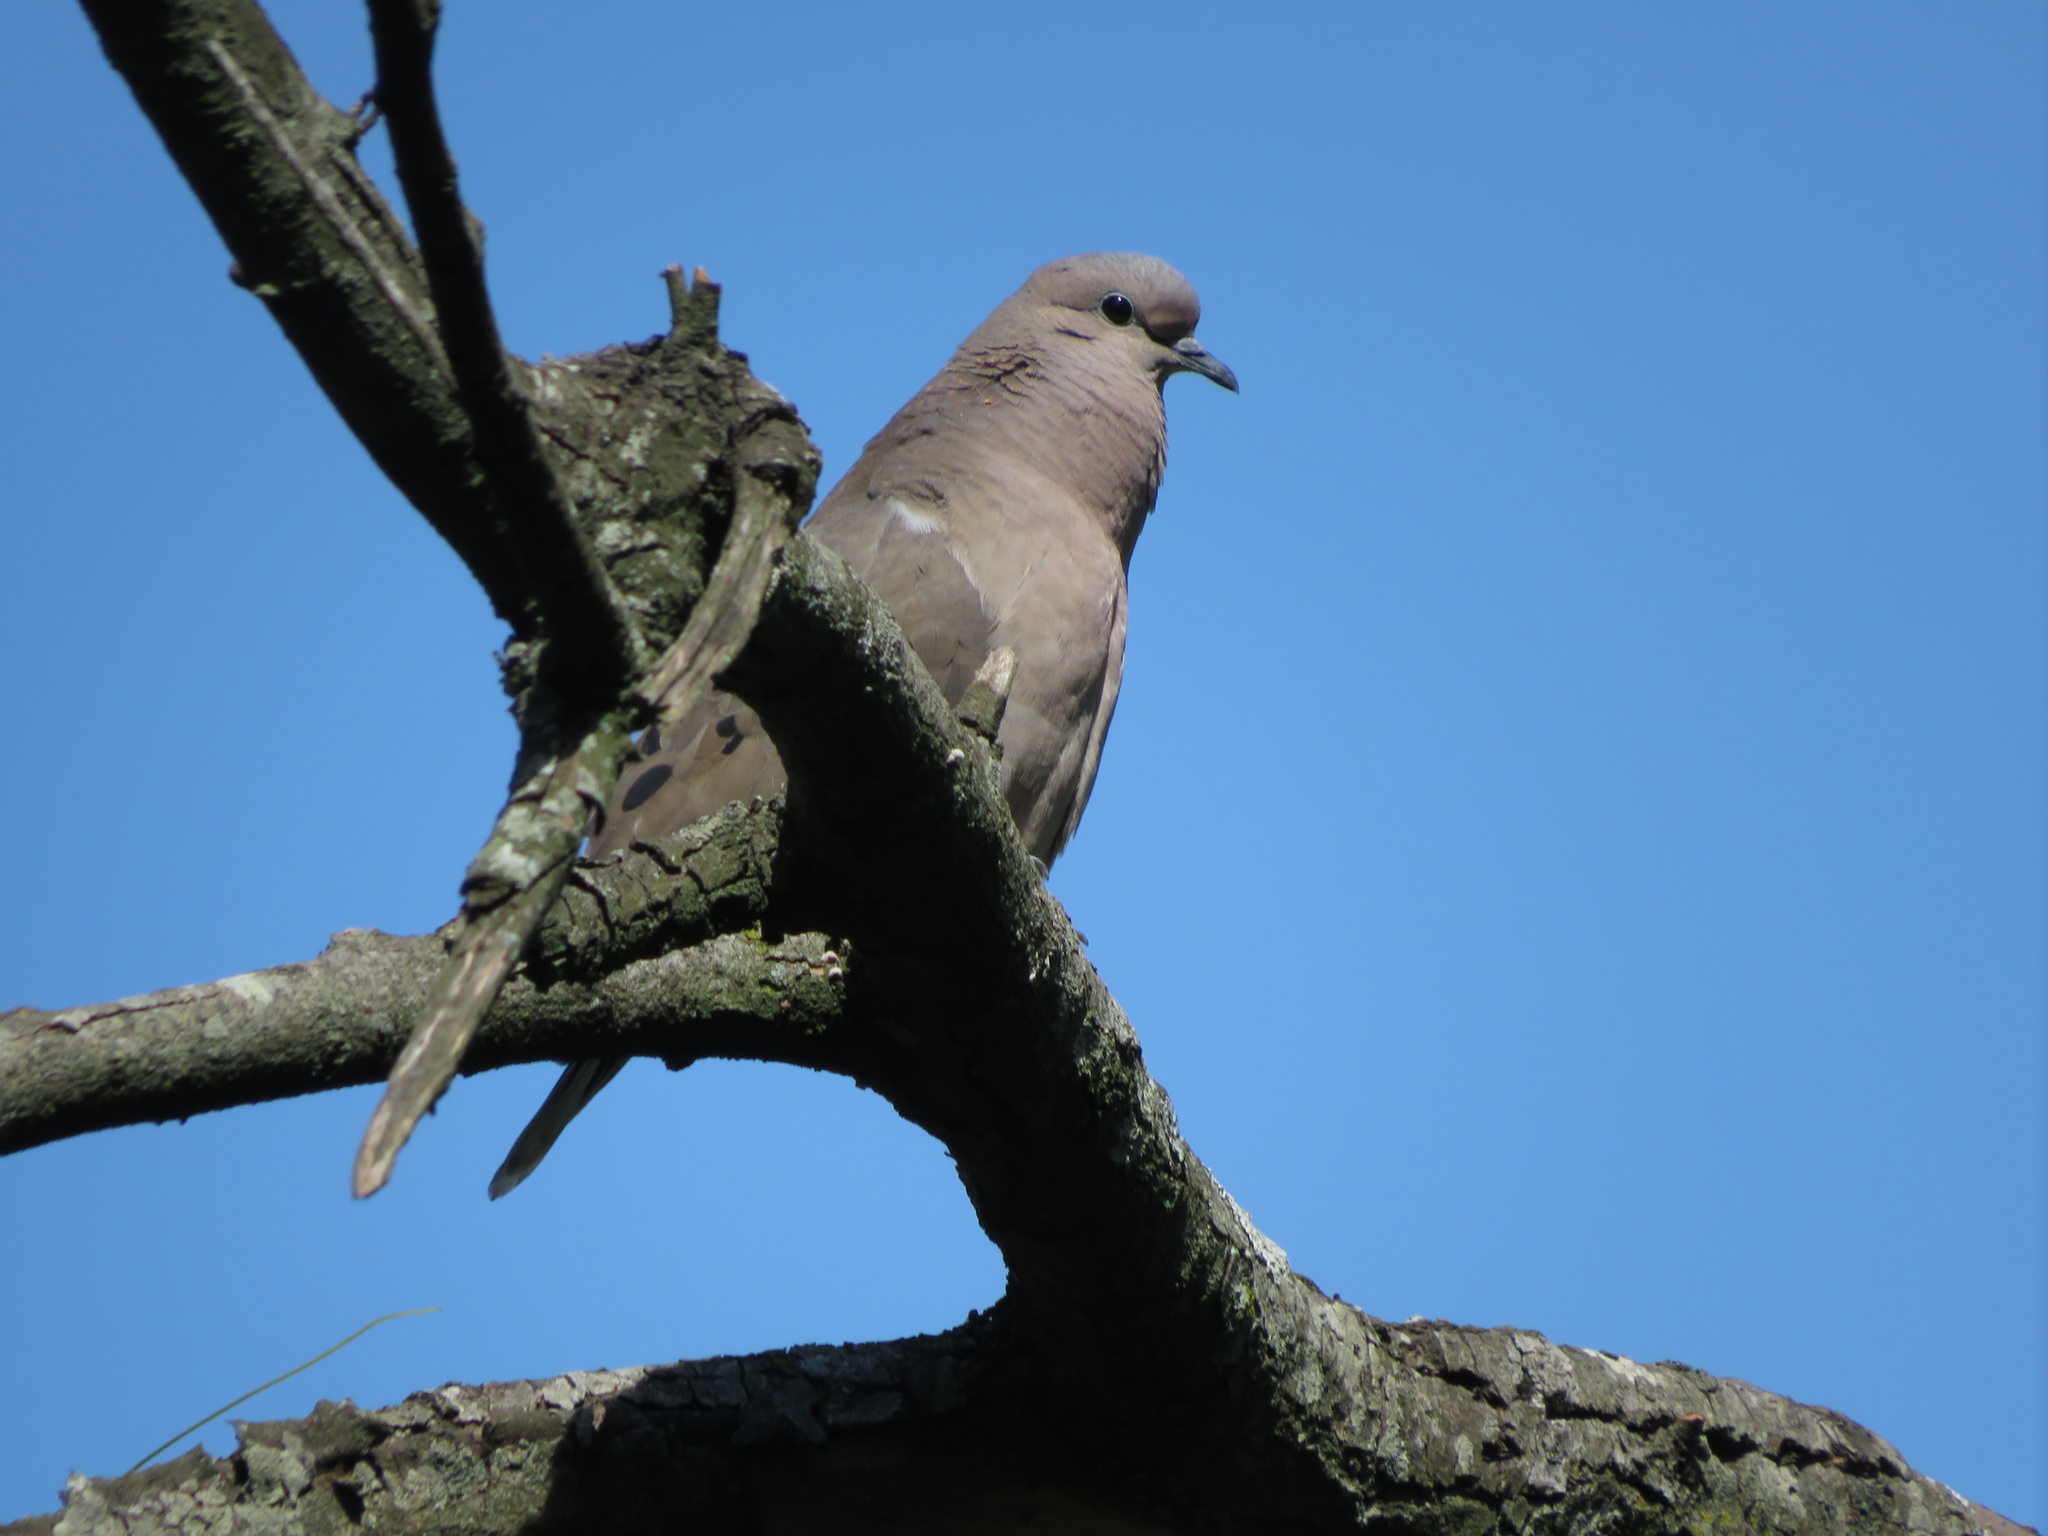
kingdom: Animalia
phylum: Chordata
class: Aves
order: Columbiformes
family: Columbidae
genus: Zenaida
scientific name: Zenaida auriculata
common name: Eared dove
